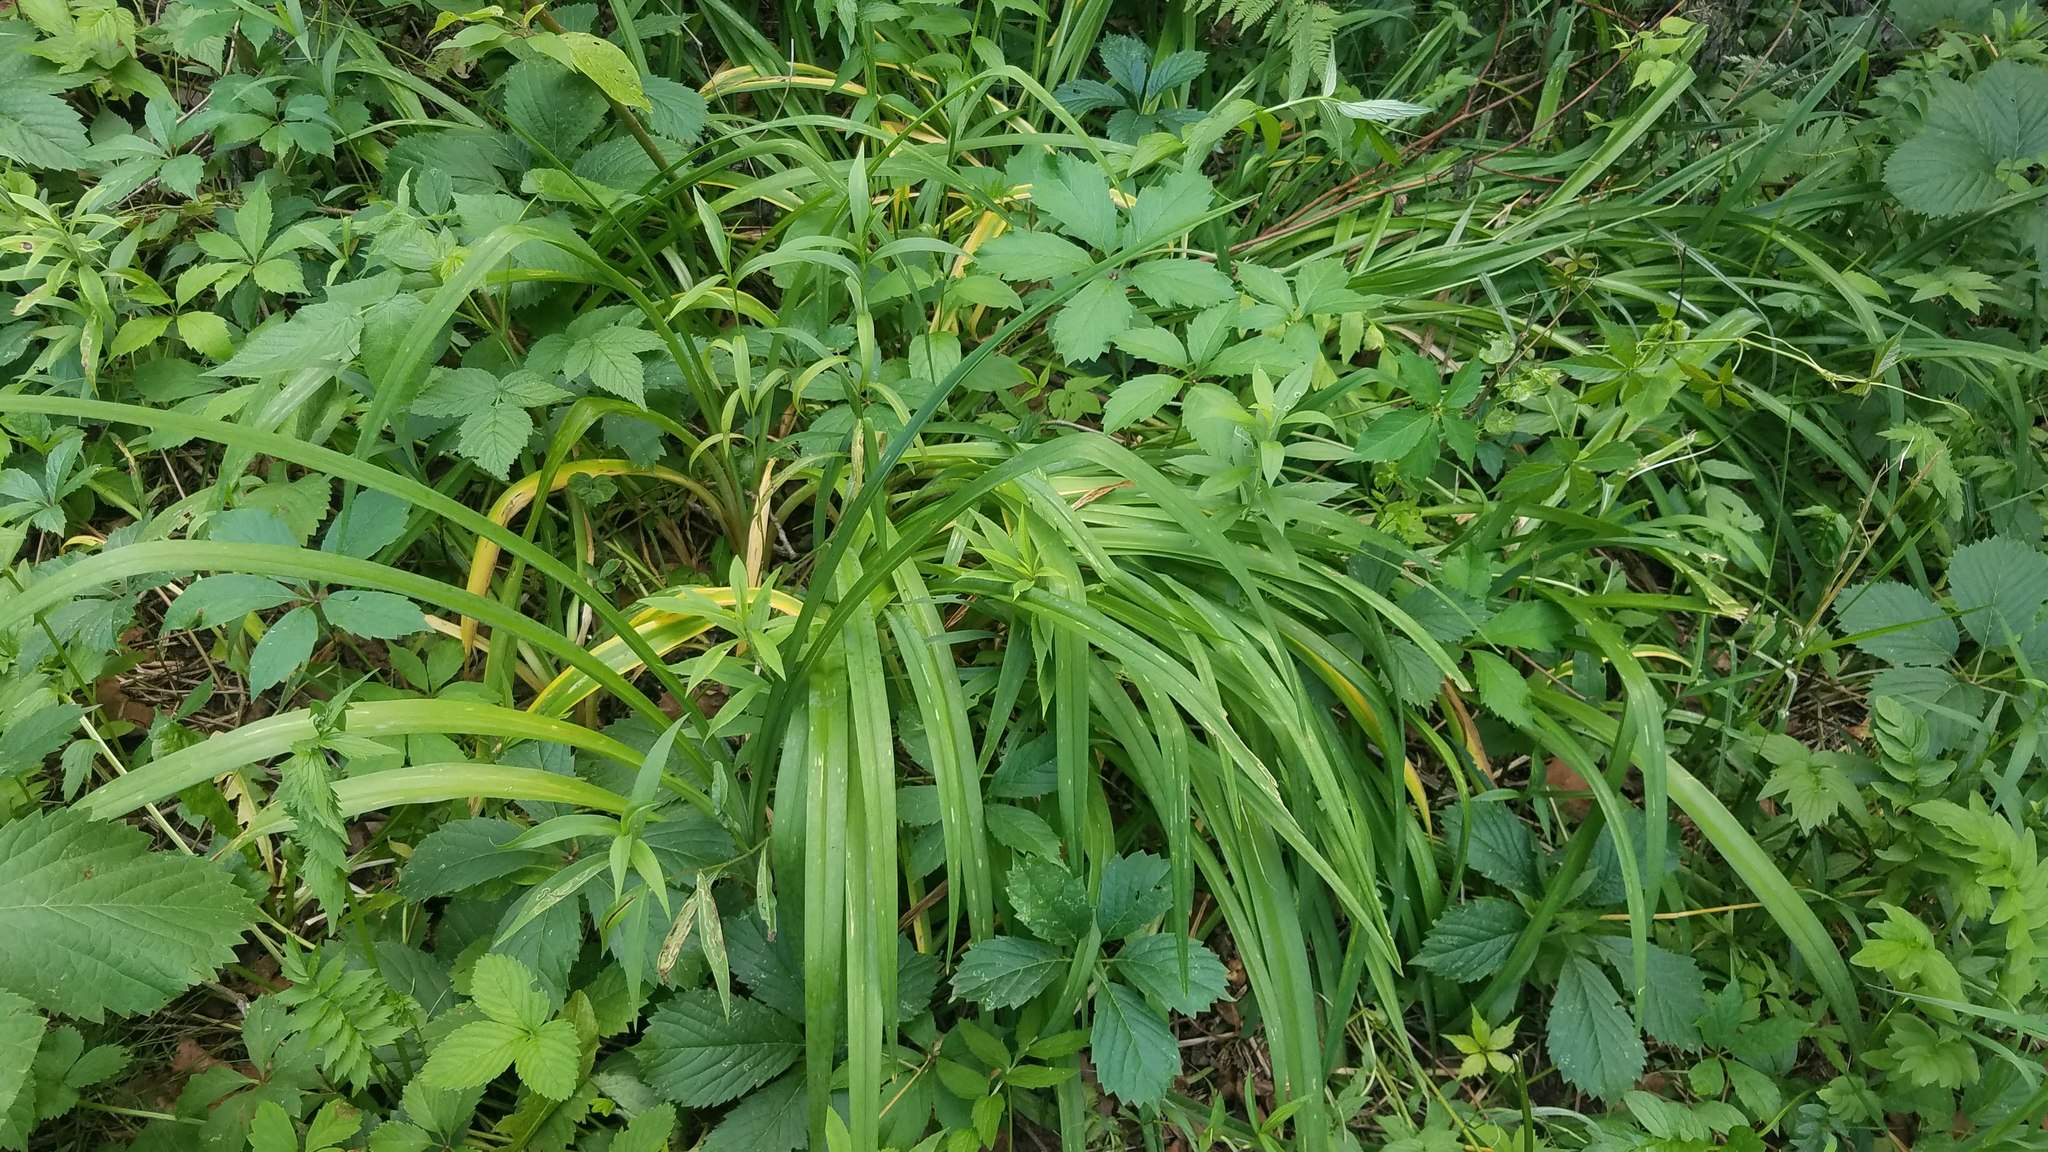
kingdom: Plantae
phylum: Tracheophyta
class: Liliopsida
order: Asparagales
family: Asphodelaceae
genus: Hemerocallis
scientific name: Hemerocallis fulva
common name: Orange day-lily
